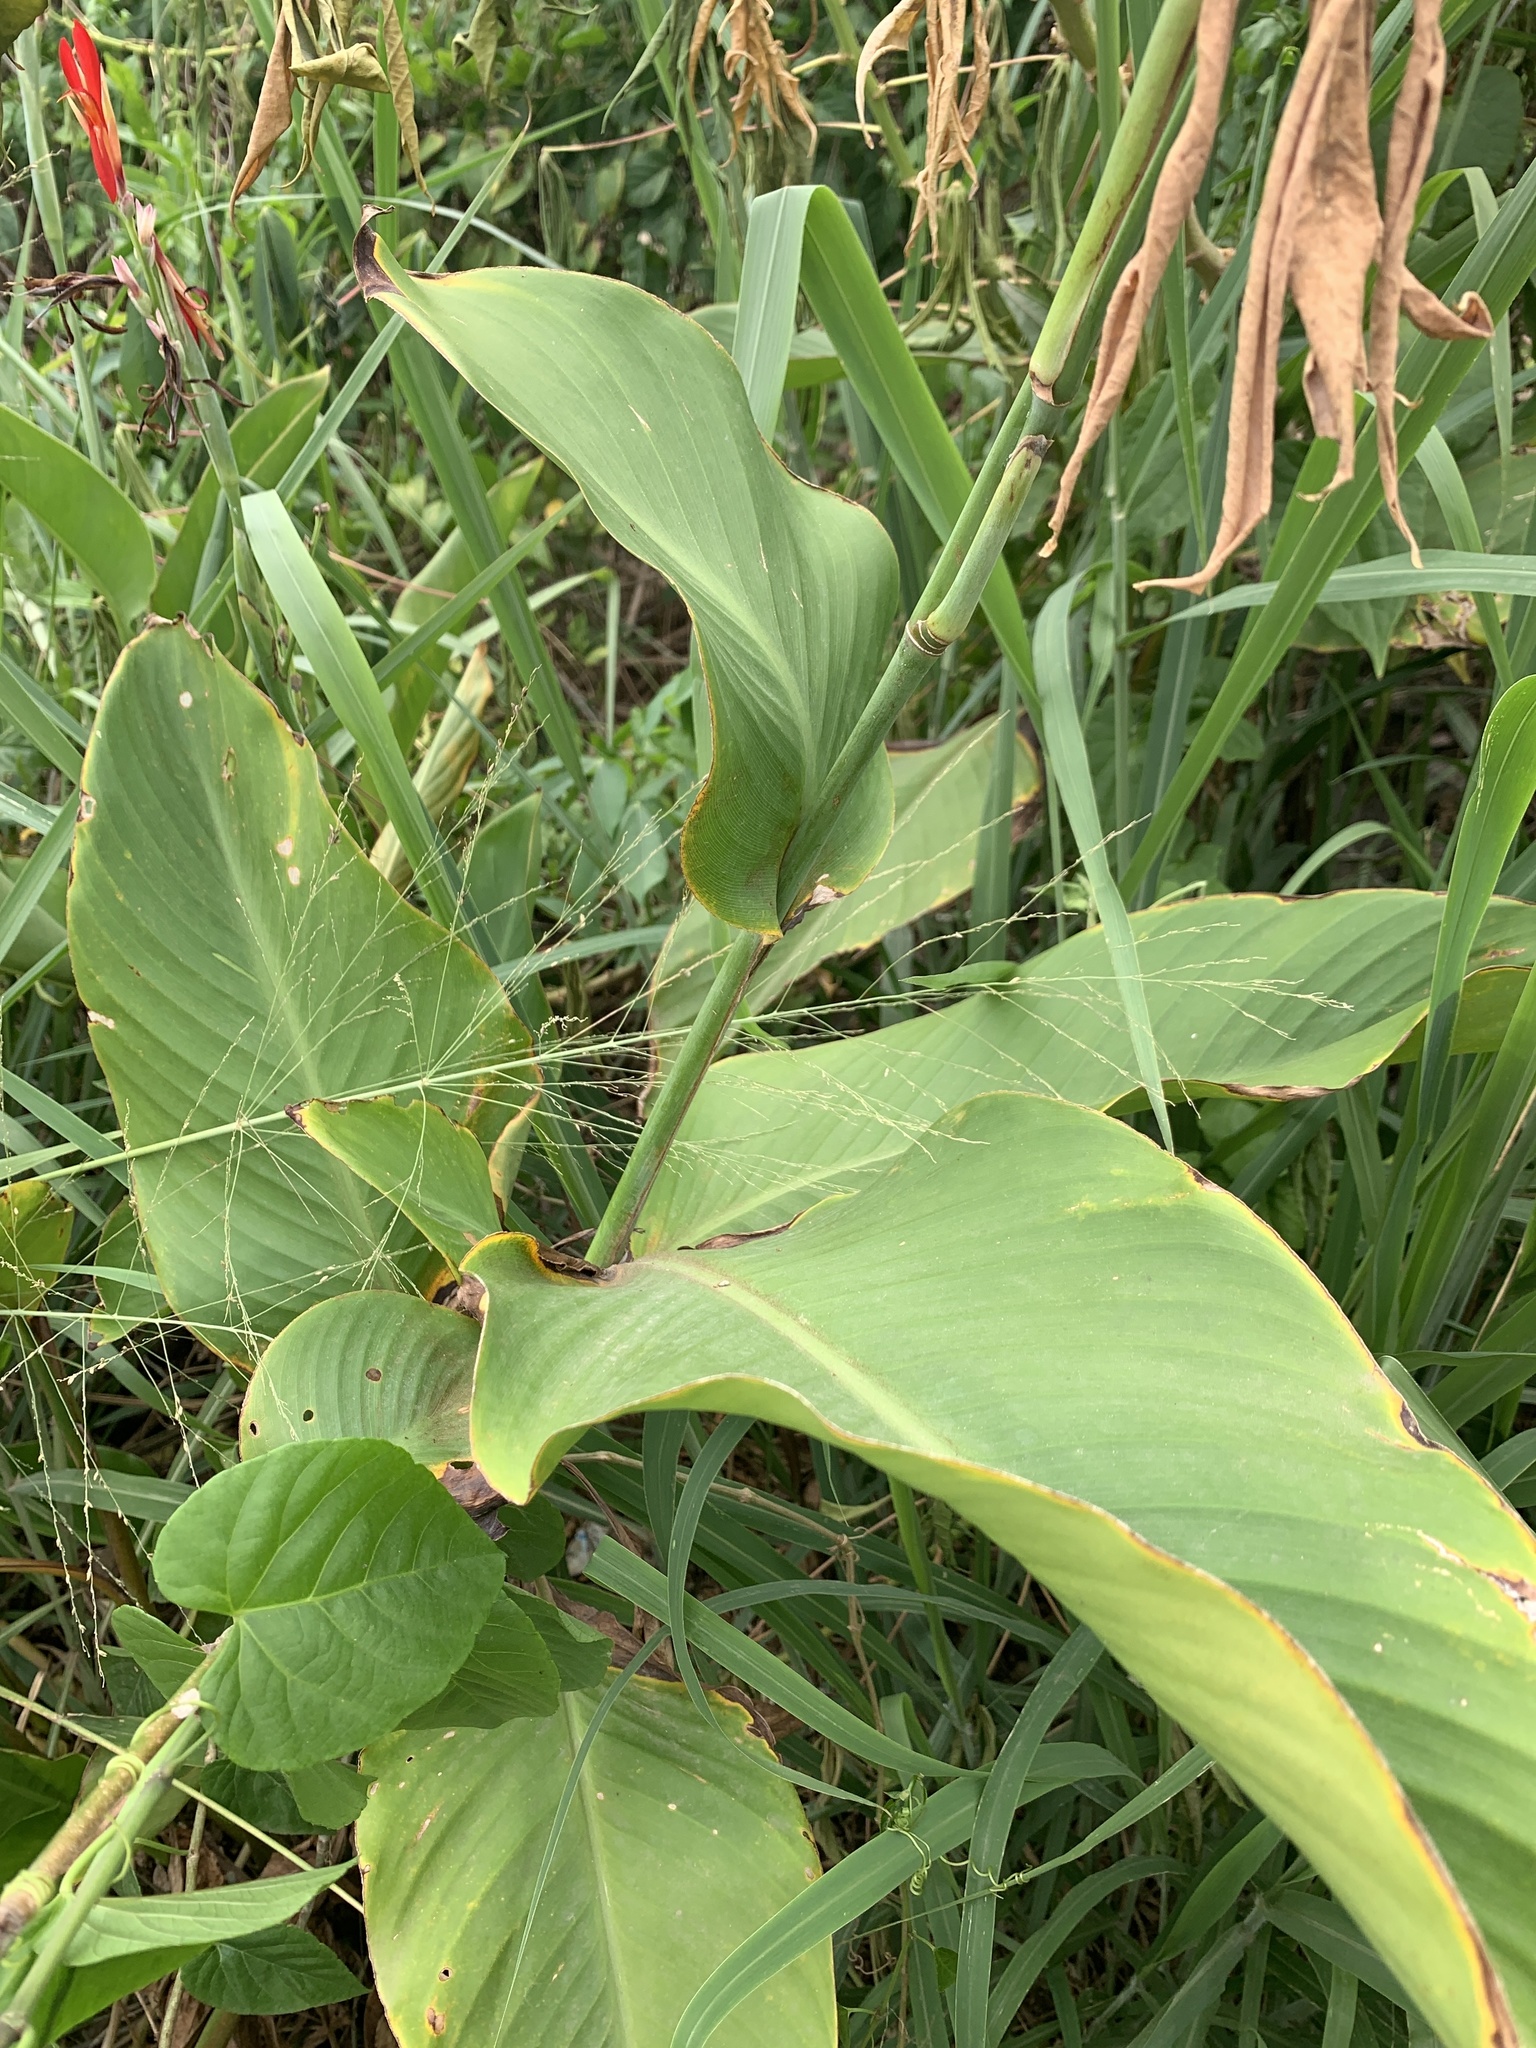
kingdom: Plantae
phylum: Tracheophyta
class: Liliopsida
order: Zingiberales
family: Cannaceae
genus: Canna
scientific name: Canna hybrida
